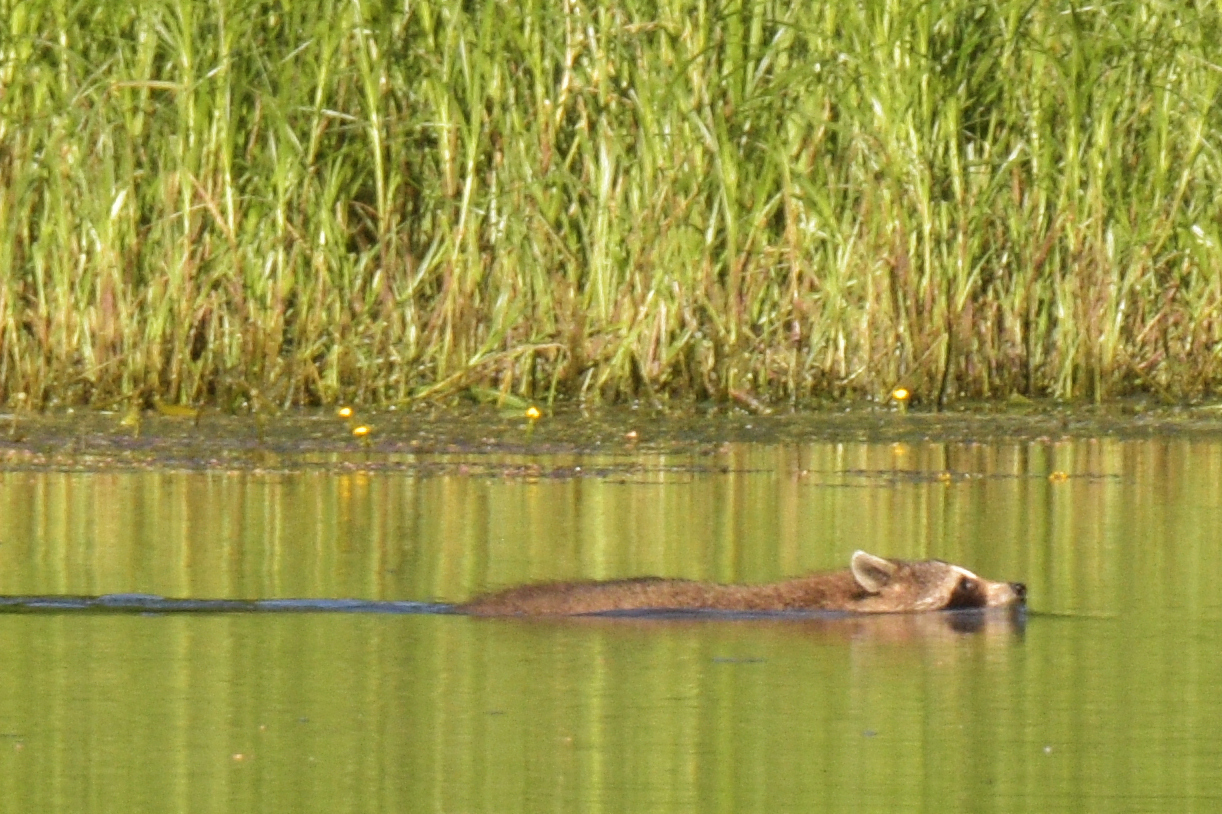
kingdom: Animalia
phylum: Chordata
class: Mammalia
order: Carnivora
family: Procyonidae
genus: Procyon
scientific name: Procyon lotor
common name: Raccoon
